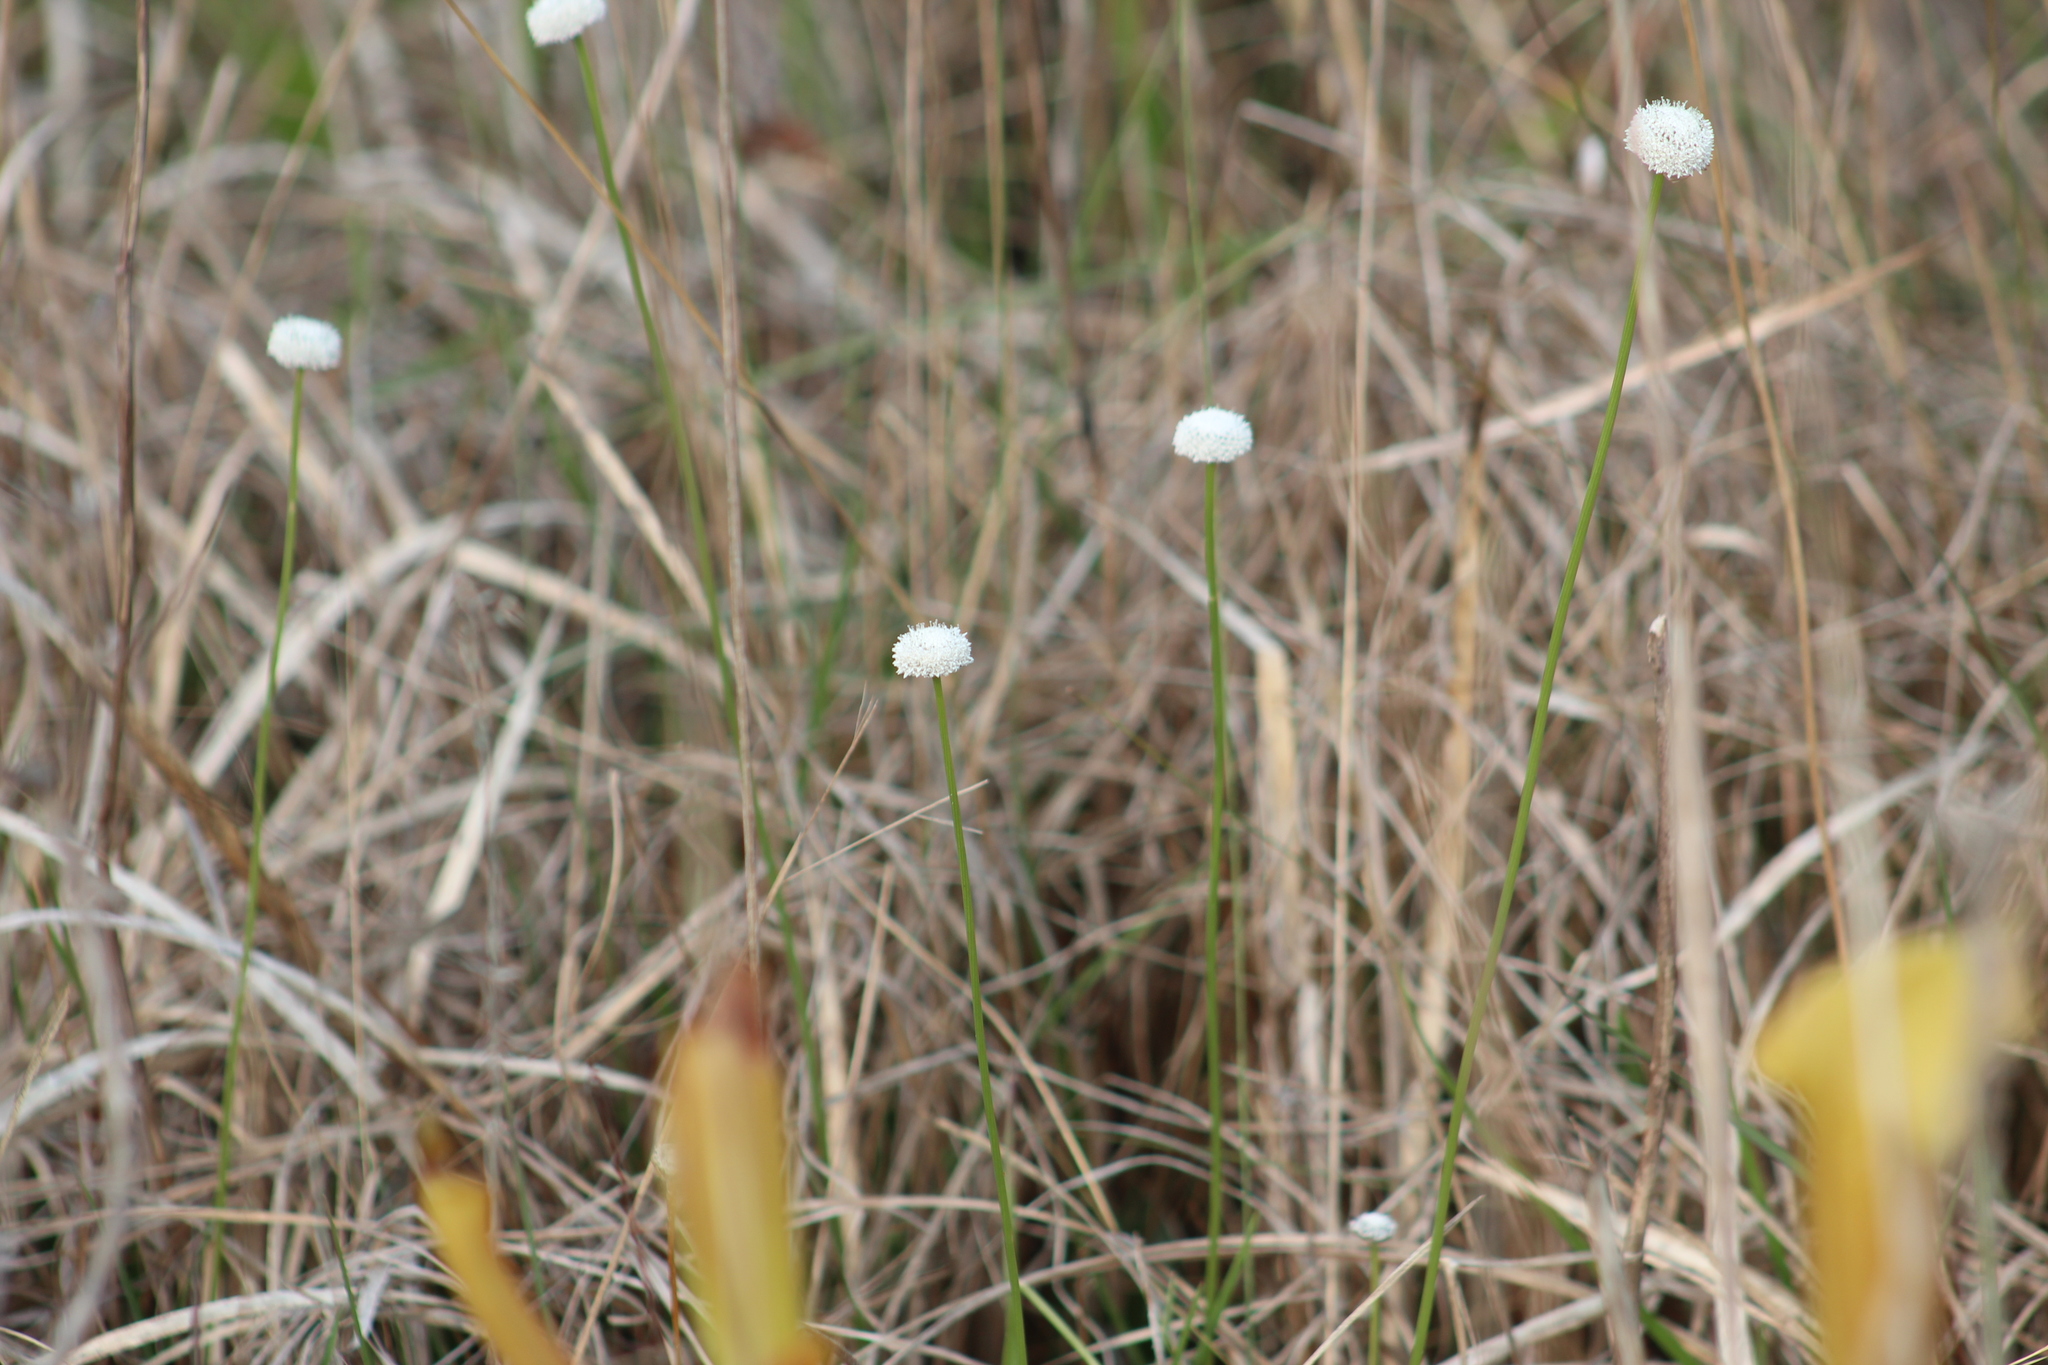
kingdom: Plantae
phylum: Tracheophyta
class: Liliopsida
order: Poales
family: Eriocaulaceae
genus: Eriocaulon
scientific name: Eriocaulon compressum
